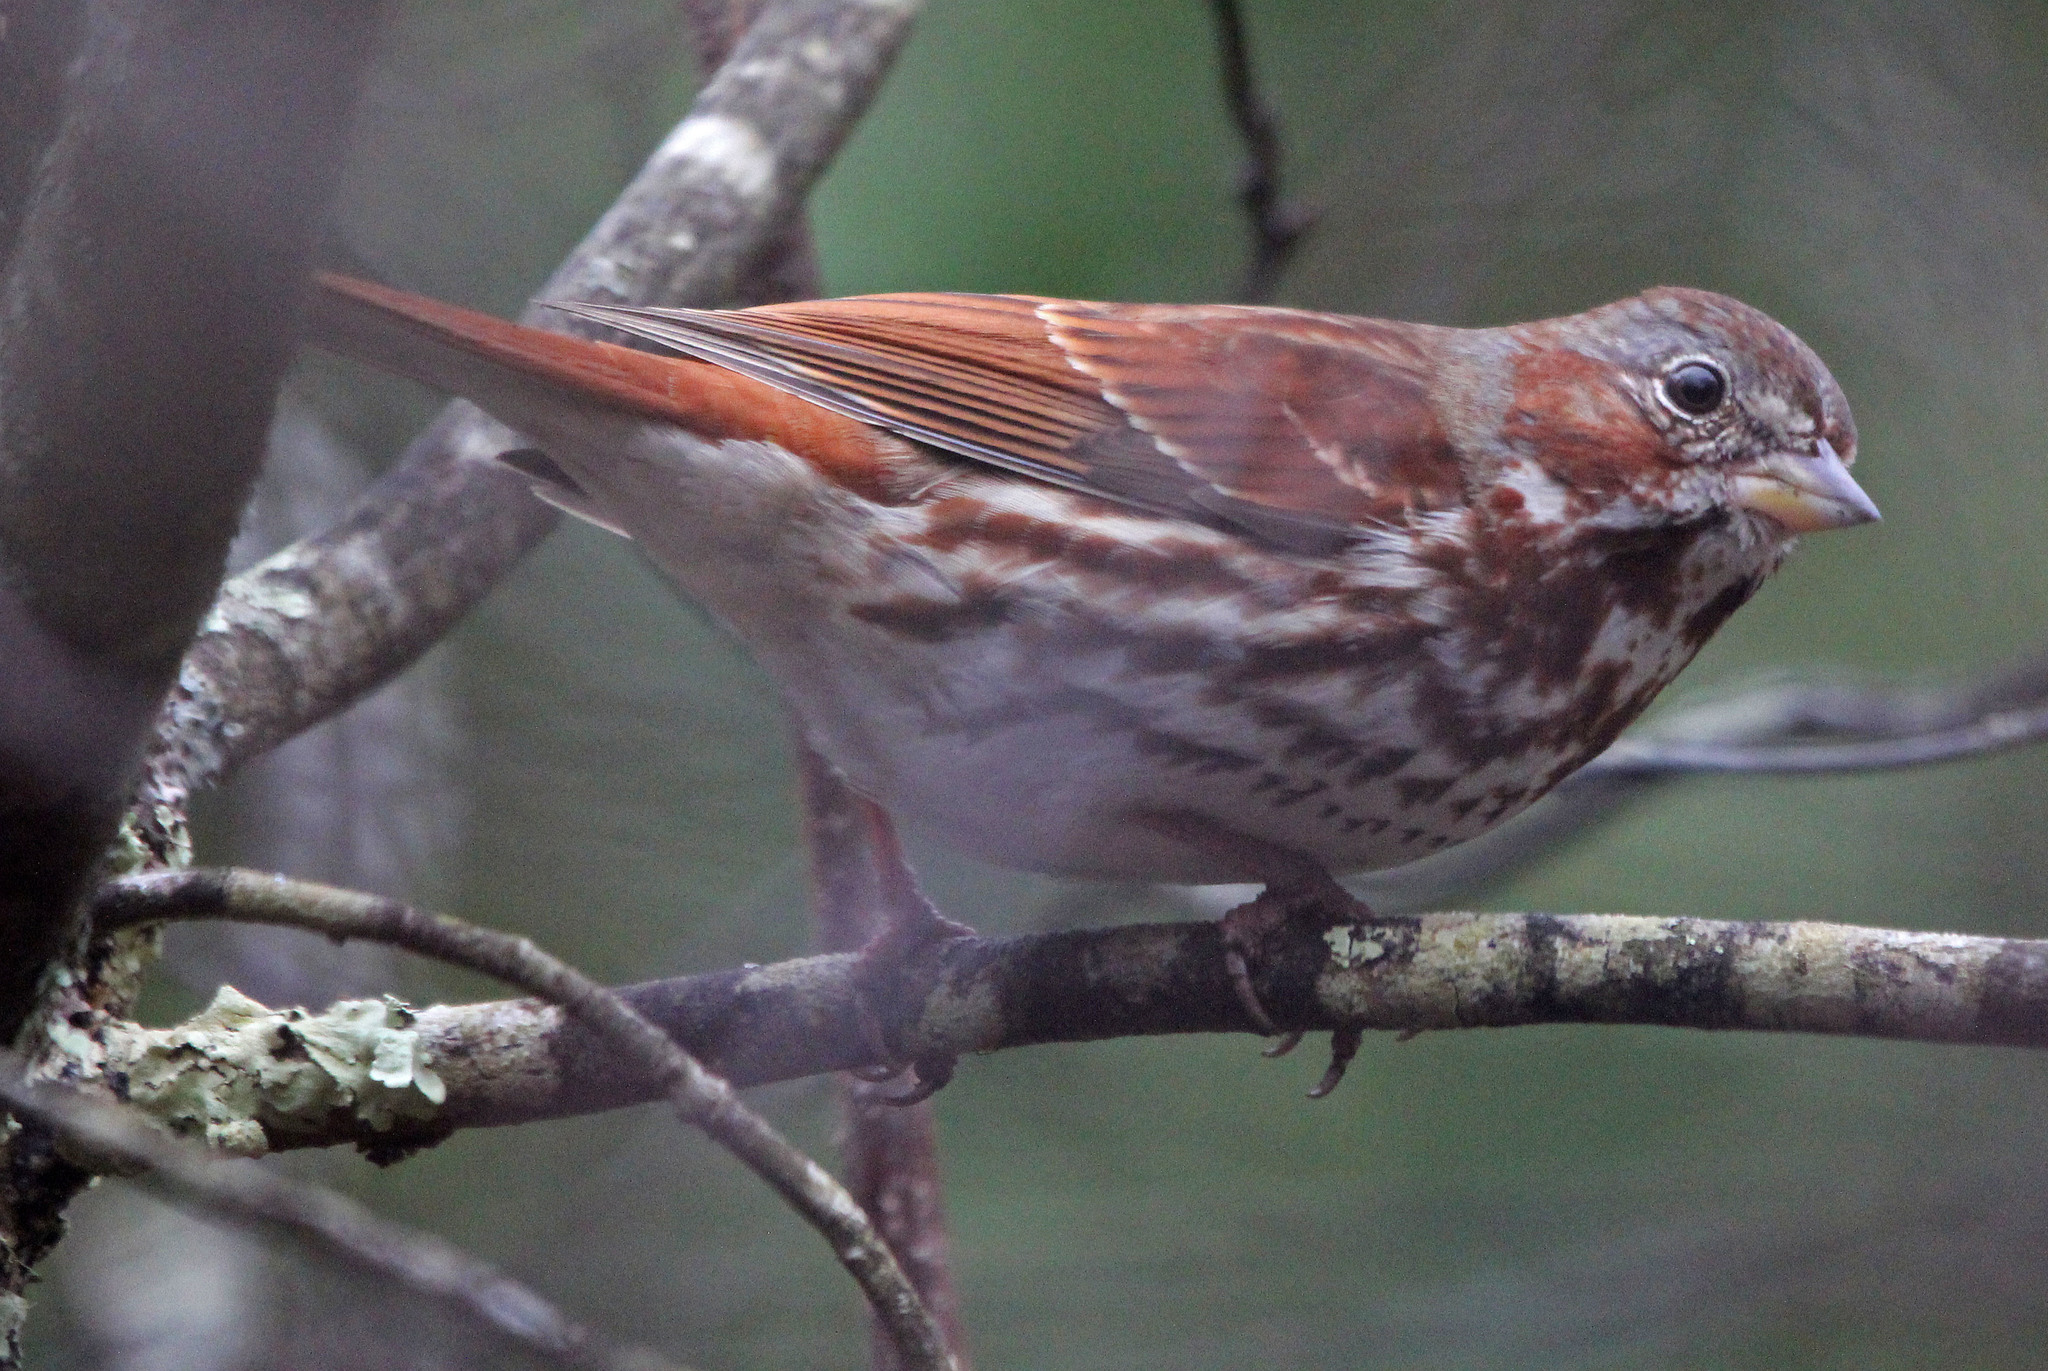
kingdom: Animalia
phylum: Chordata
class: Aves
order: Passeriformes
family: Passerellidae
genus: Passerella
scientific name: Passerella iliaca
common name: Fox sparrow
